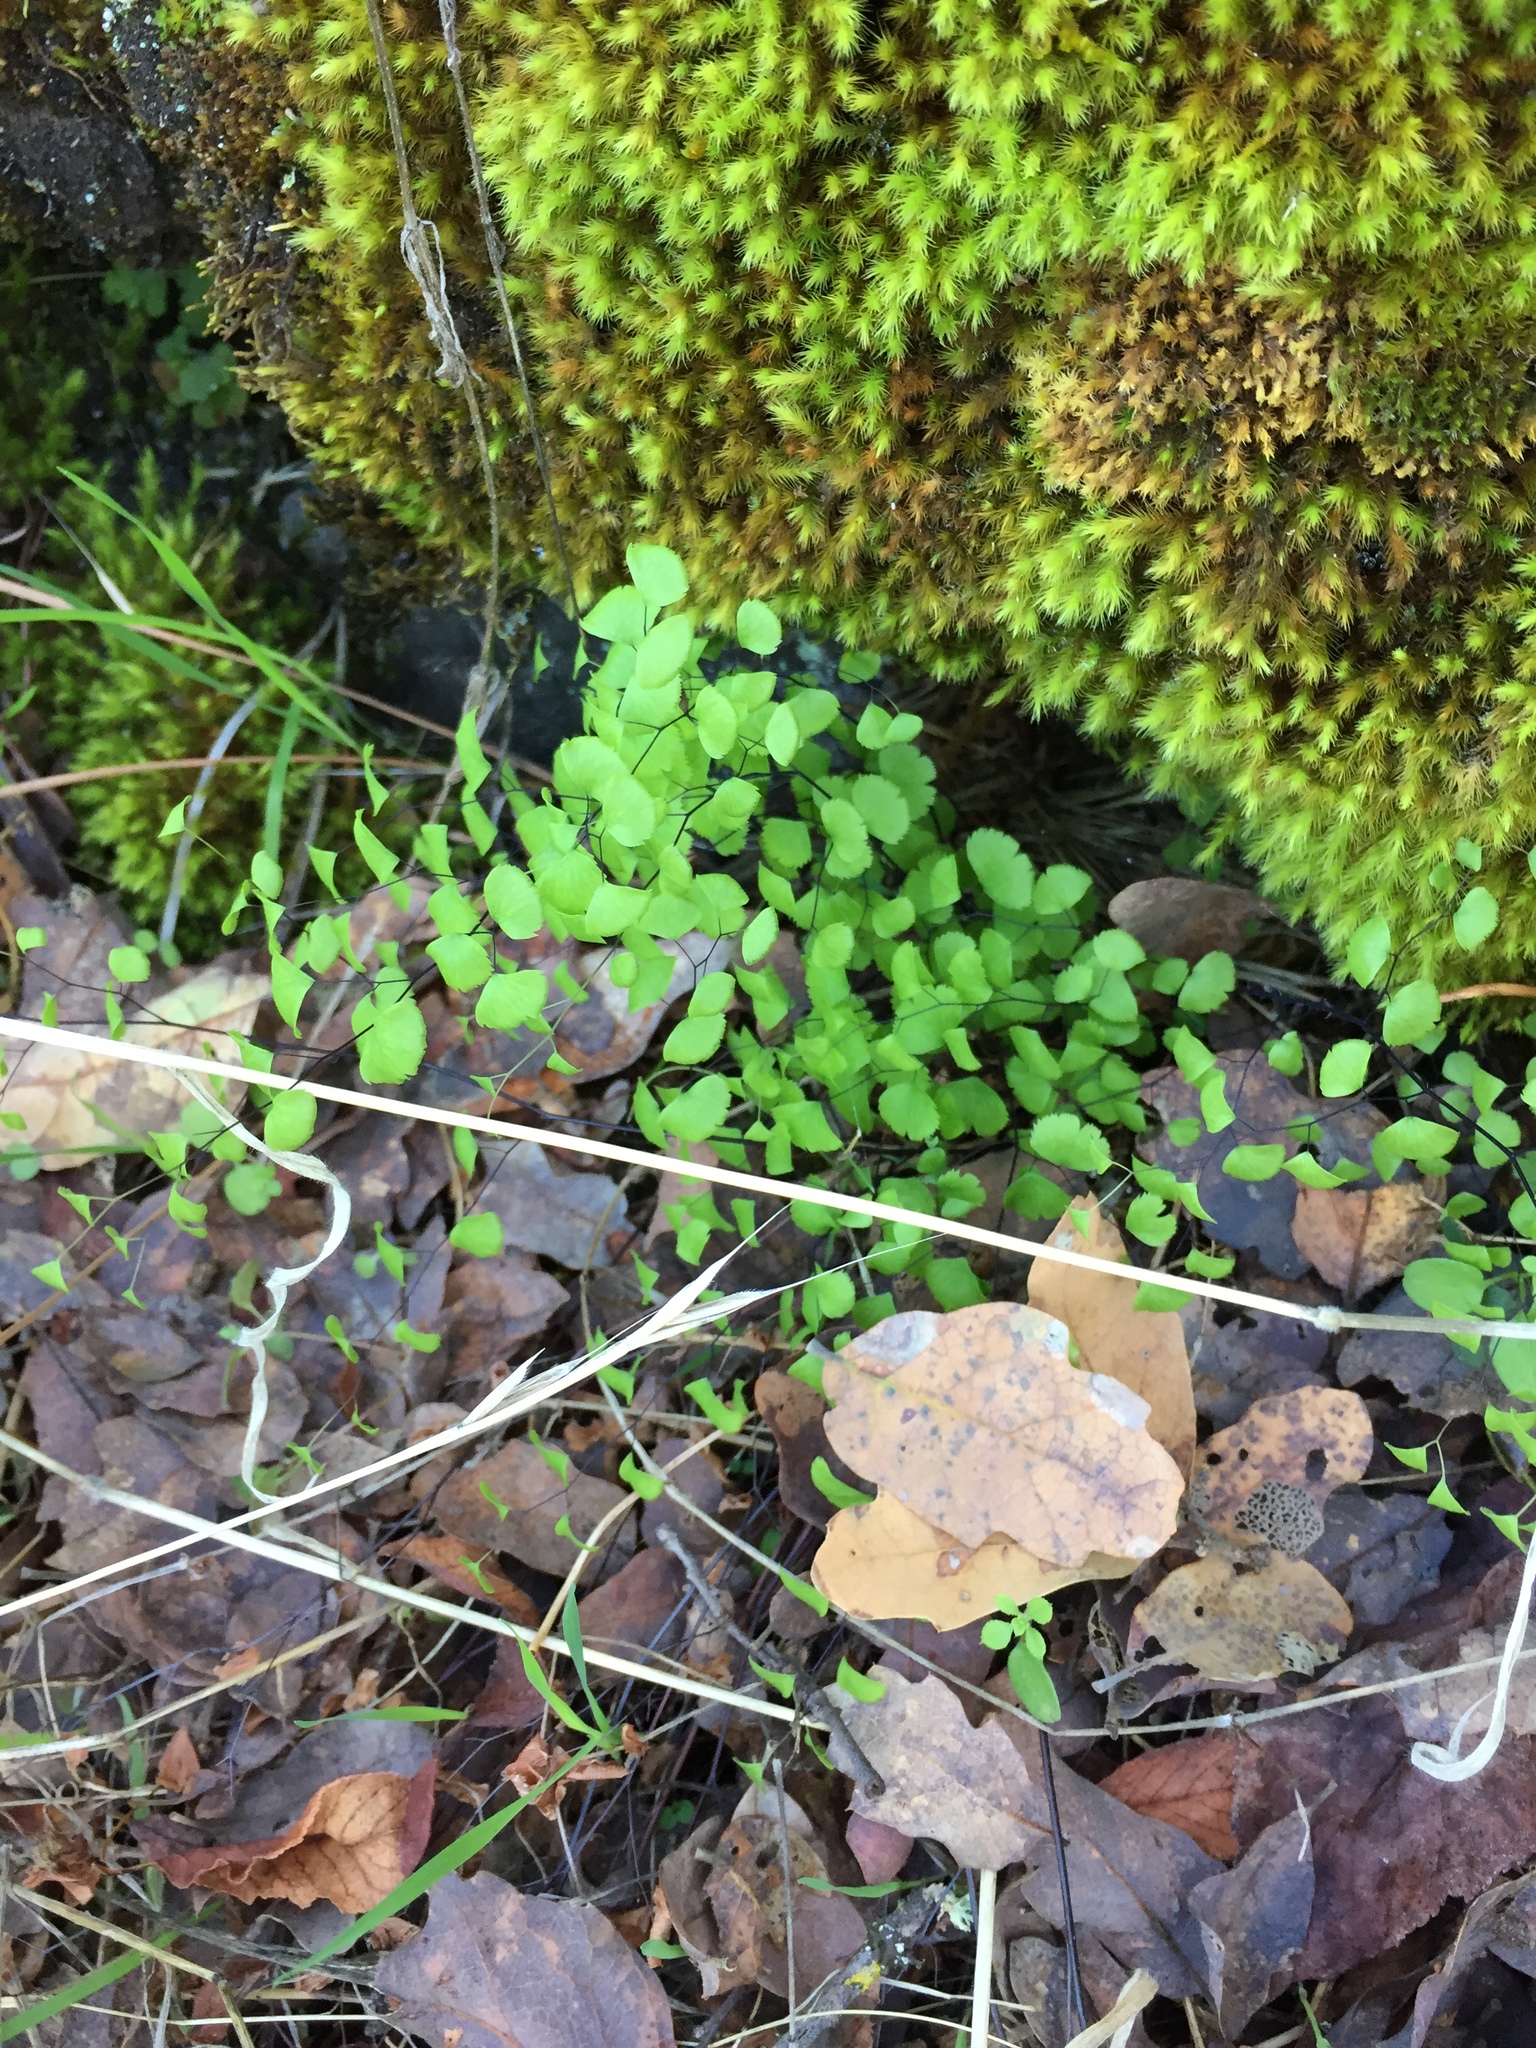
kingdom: Plantae
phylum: Tracheophyta
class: Polypodiopsida
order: Polypodiales
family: Pteridaceae
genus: Adiantum
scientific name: Adiantum jordanii
